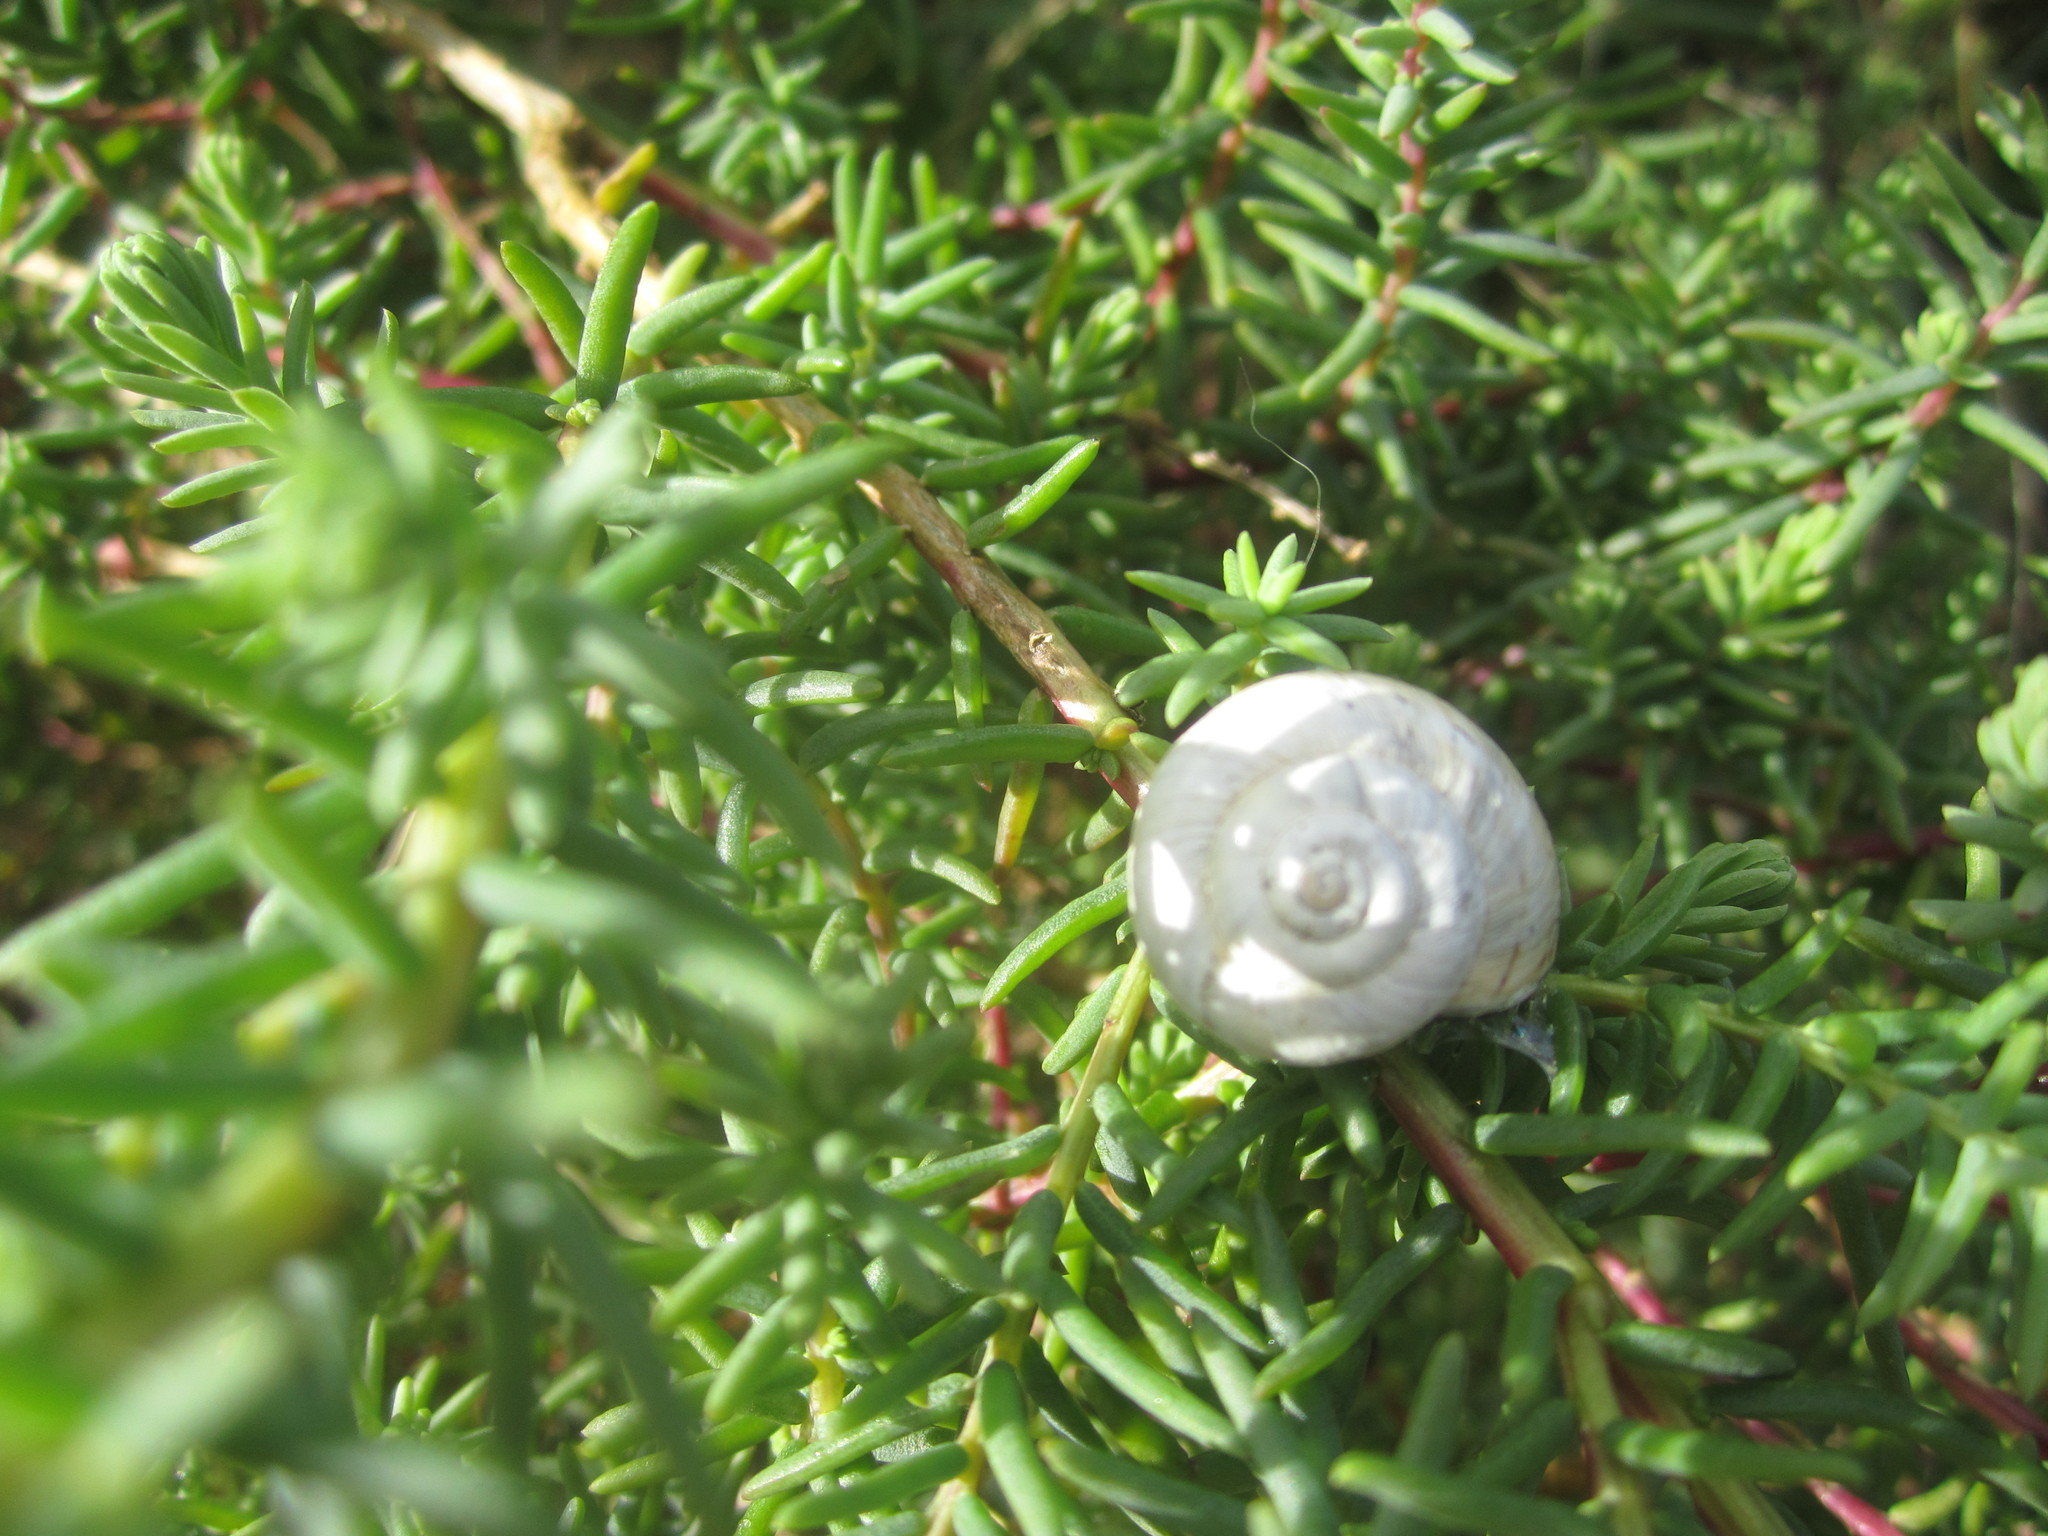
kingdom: Animalia
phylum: Mollusca
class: Gastropoda
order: Stylommatophora
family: Helicidae
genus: Theba
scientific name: Theba pisana
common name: White snail
